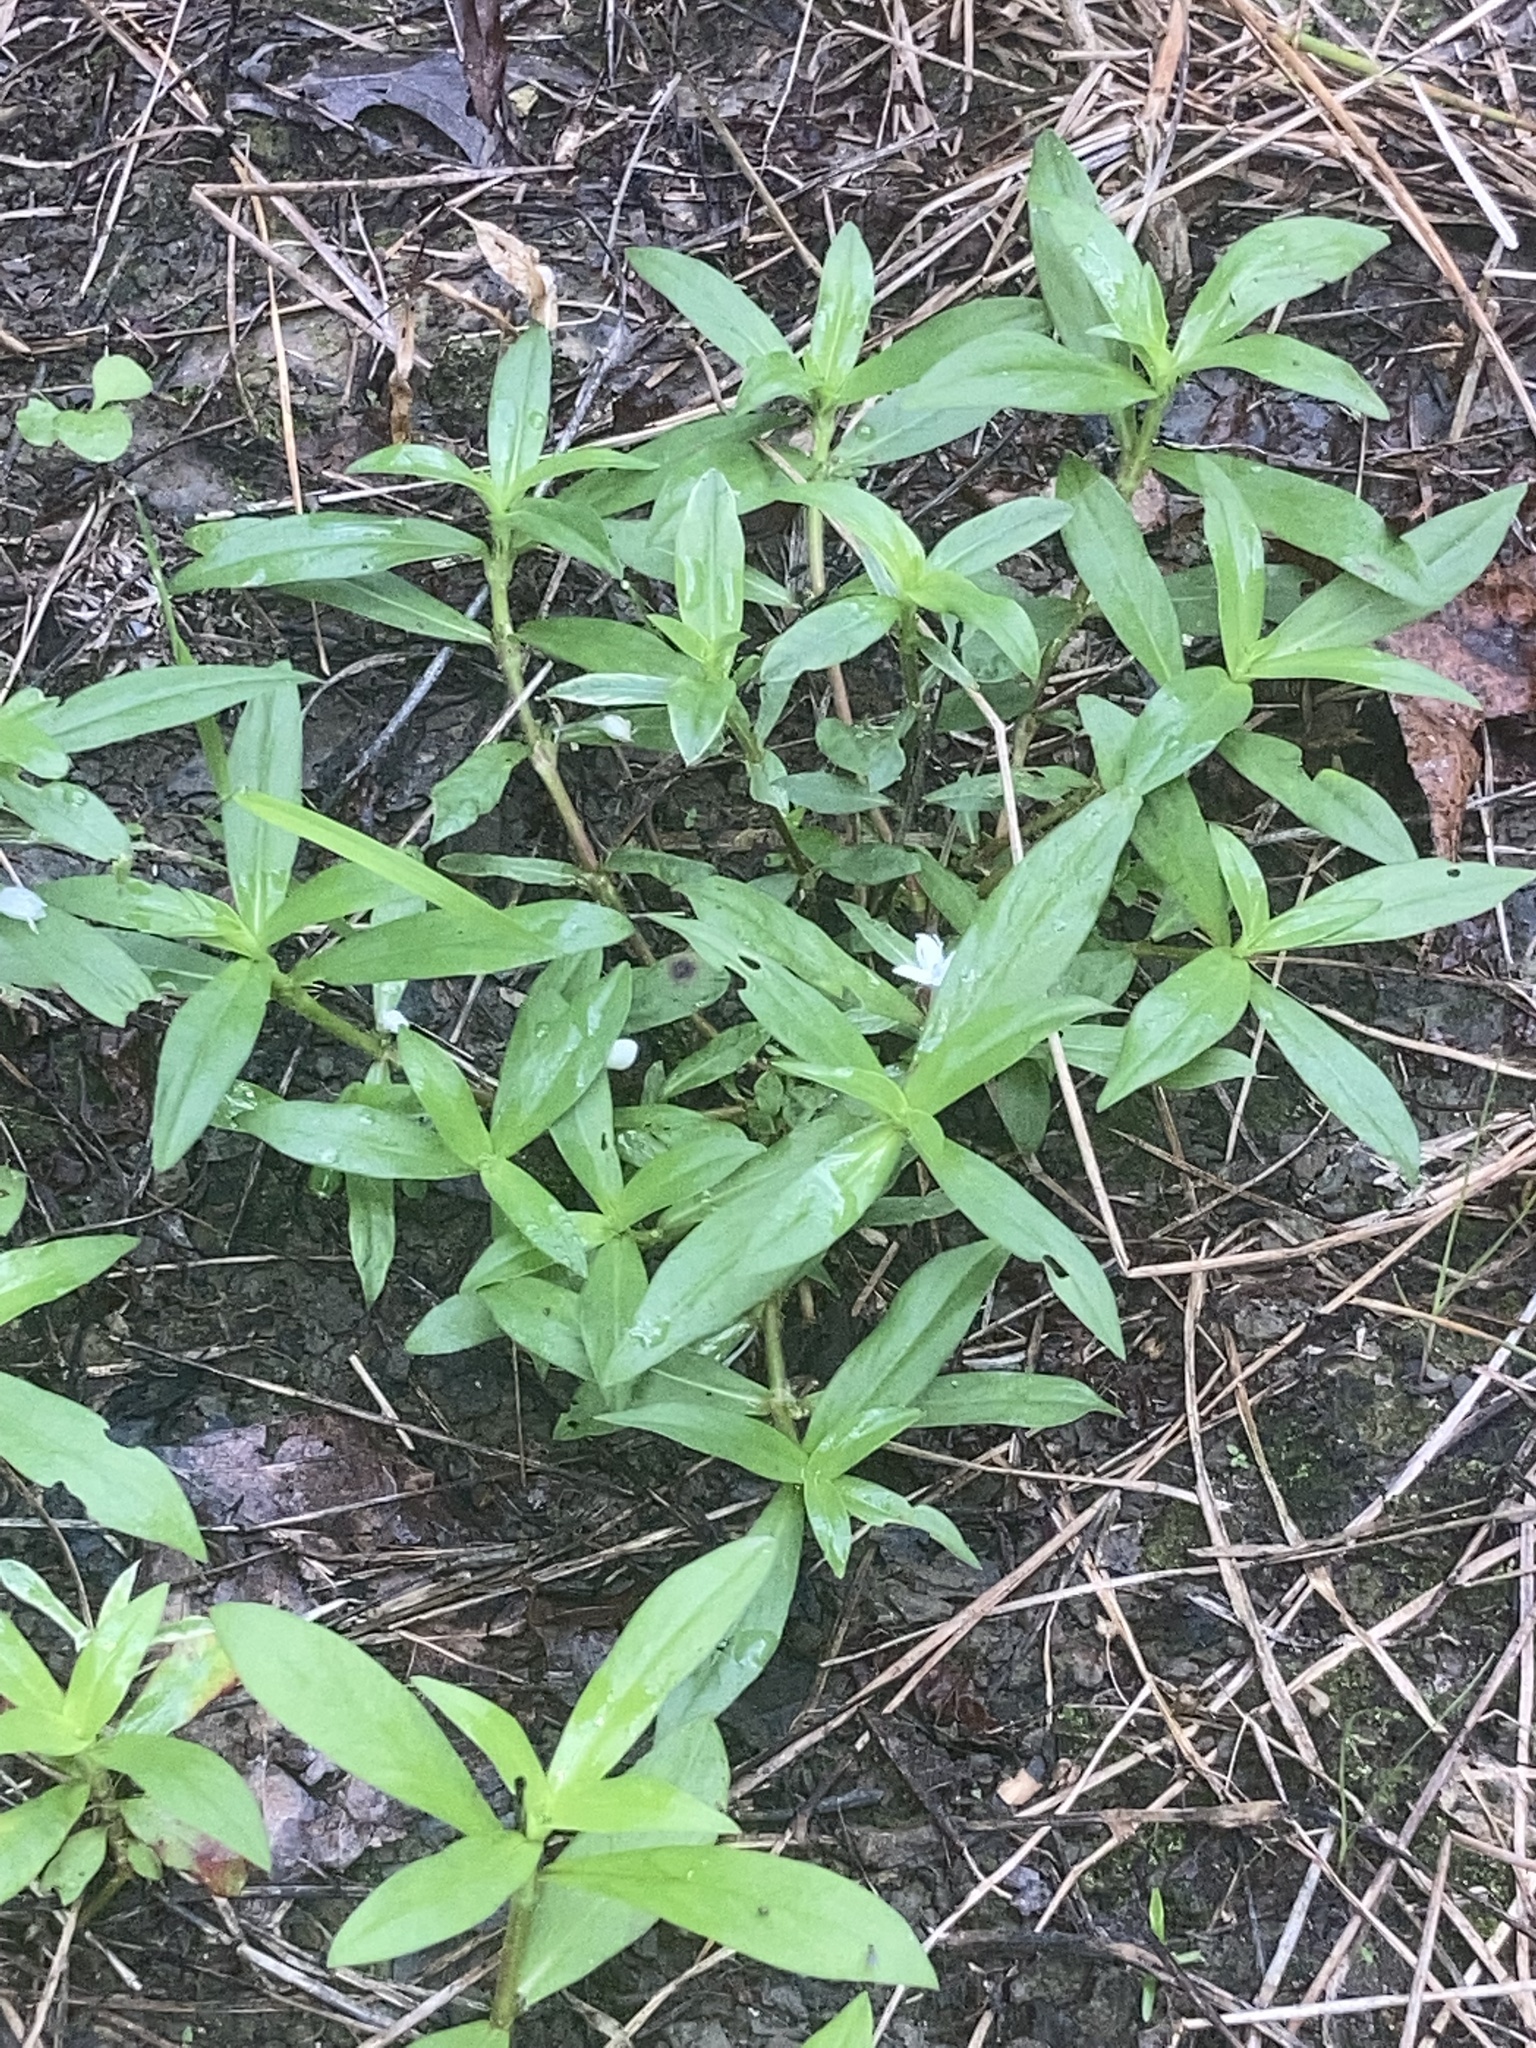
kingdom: Plantae
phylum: Tracheophyta
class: Magnoliopsida
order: Gentianales
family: Rubiaceae
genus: Diodia
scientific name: Diodia virginiana
